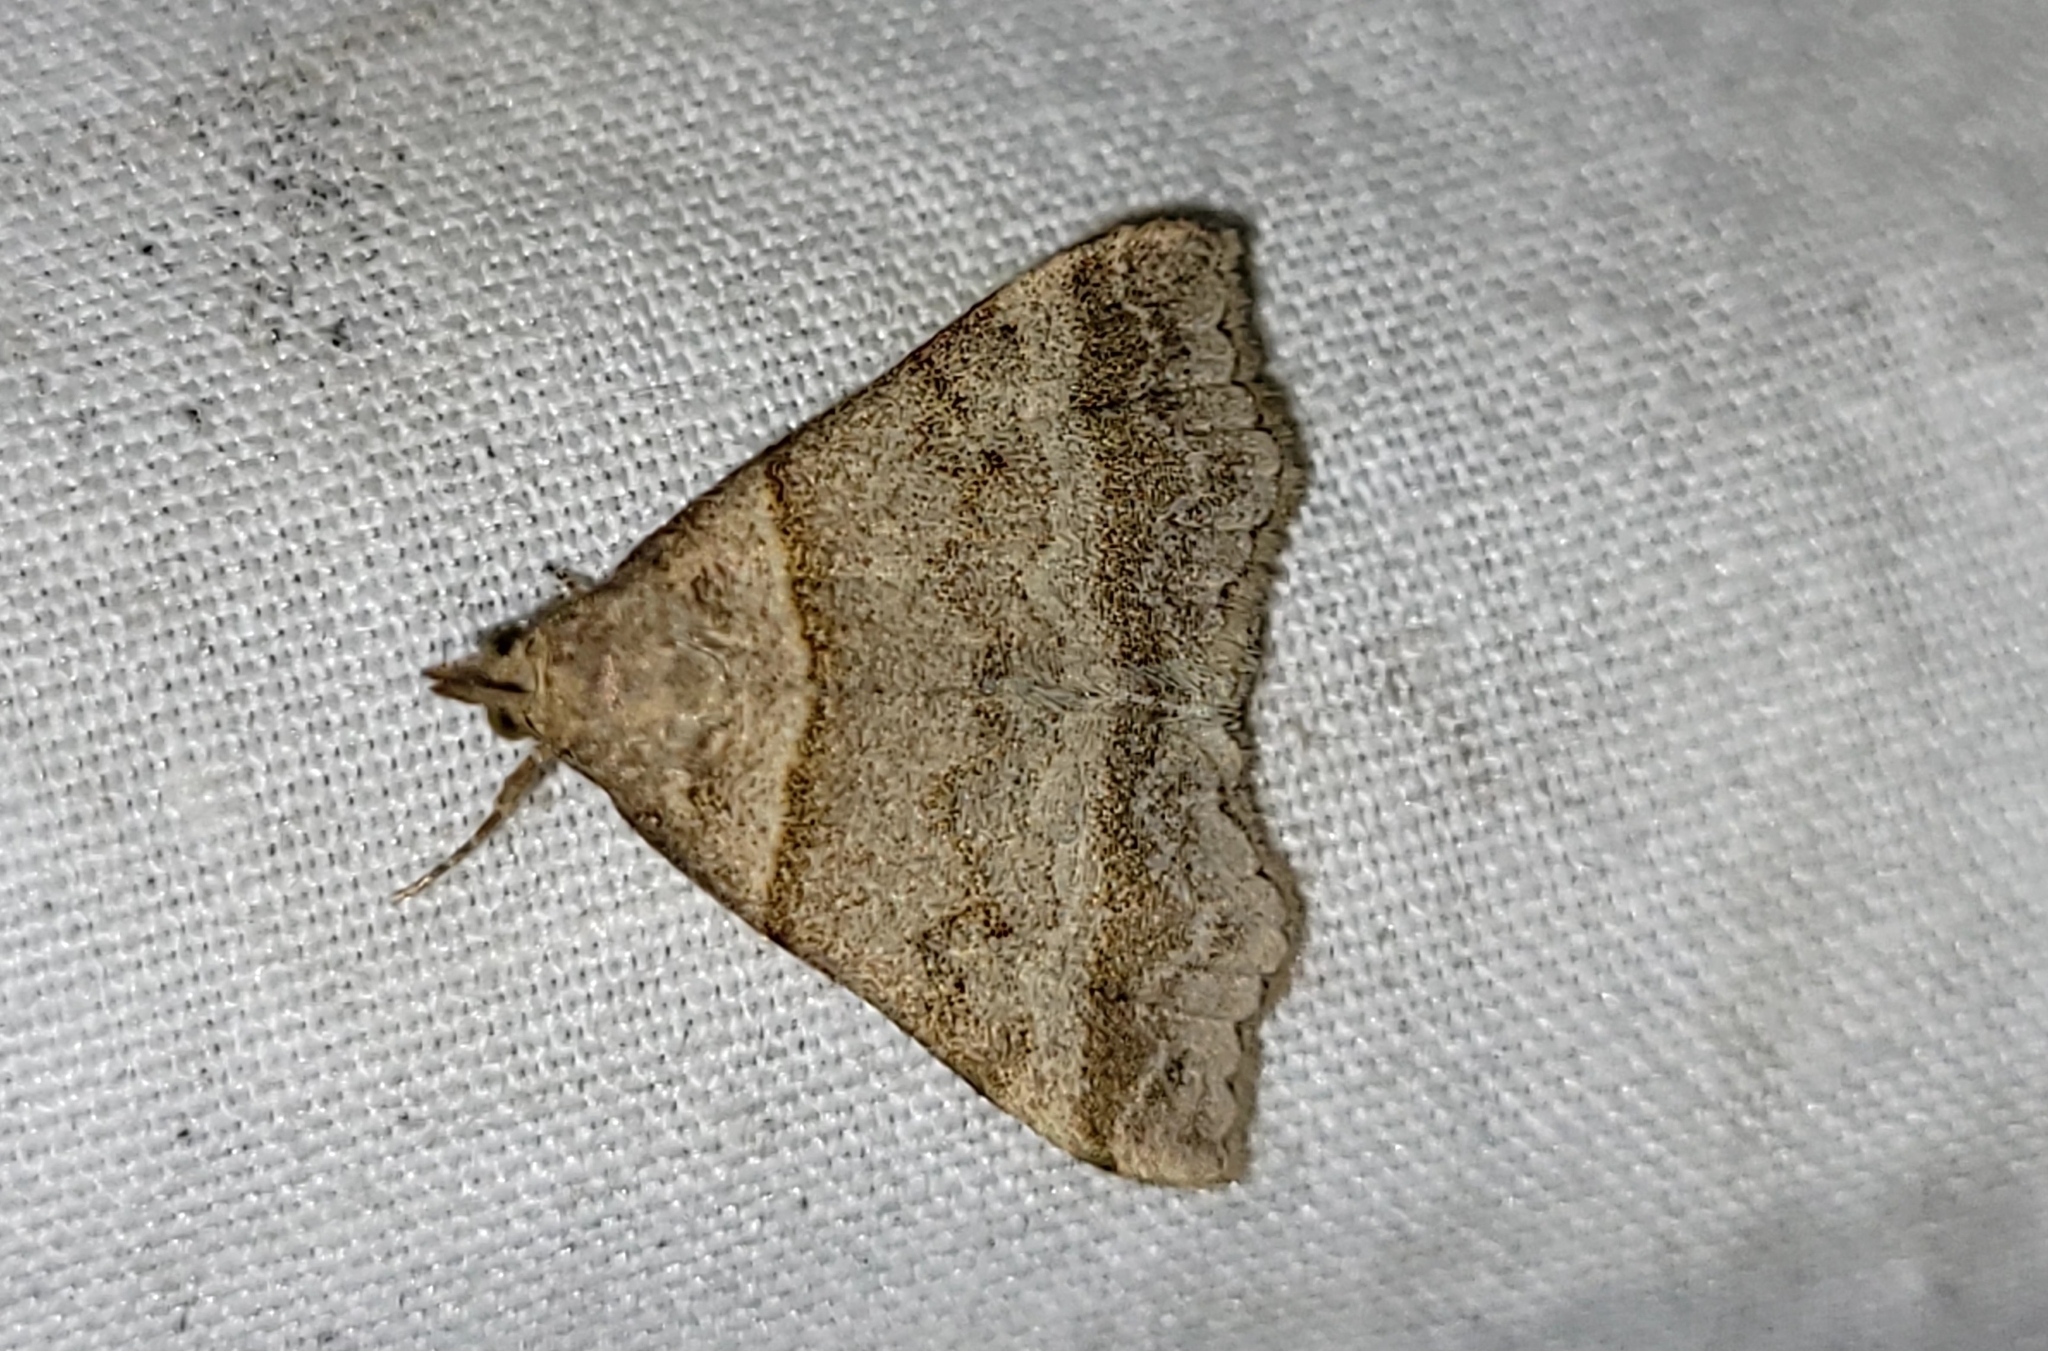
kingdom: Animalia
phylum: Arthropoda
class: Insecta
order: Lepidoptera
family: Erebidae
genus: Phaeolita
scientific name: Phaeolita pyramusalis
